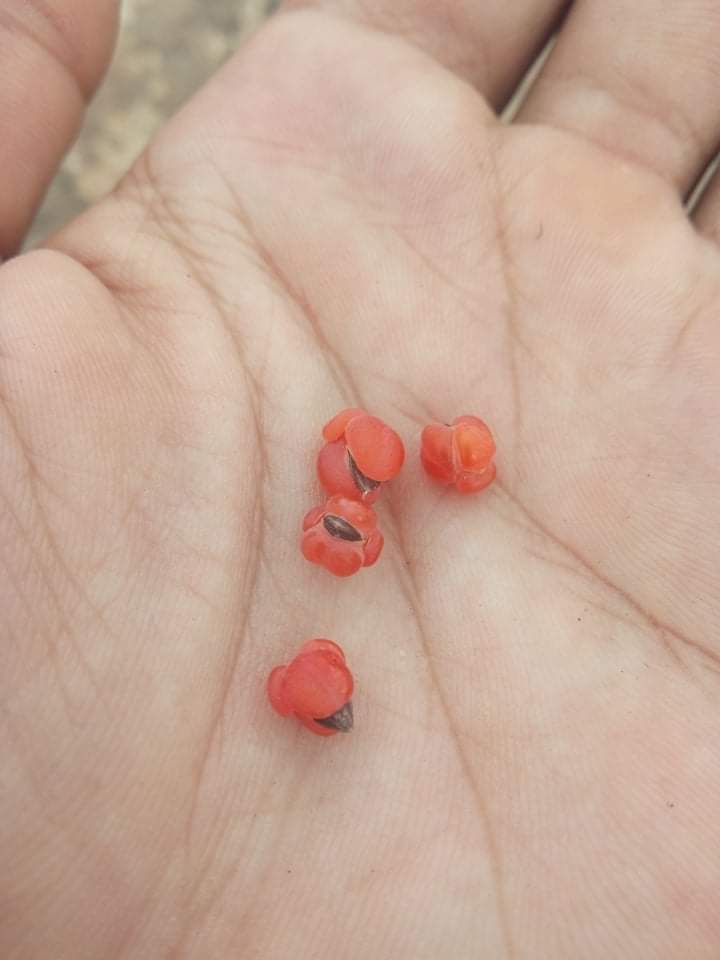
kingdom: Plantae
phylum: Tracheophyta
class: Gnetopsida
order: Ephedrales
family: Ephedraceae
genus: Ephedra
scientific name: Ephedra nebrodensis
